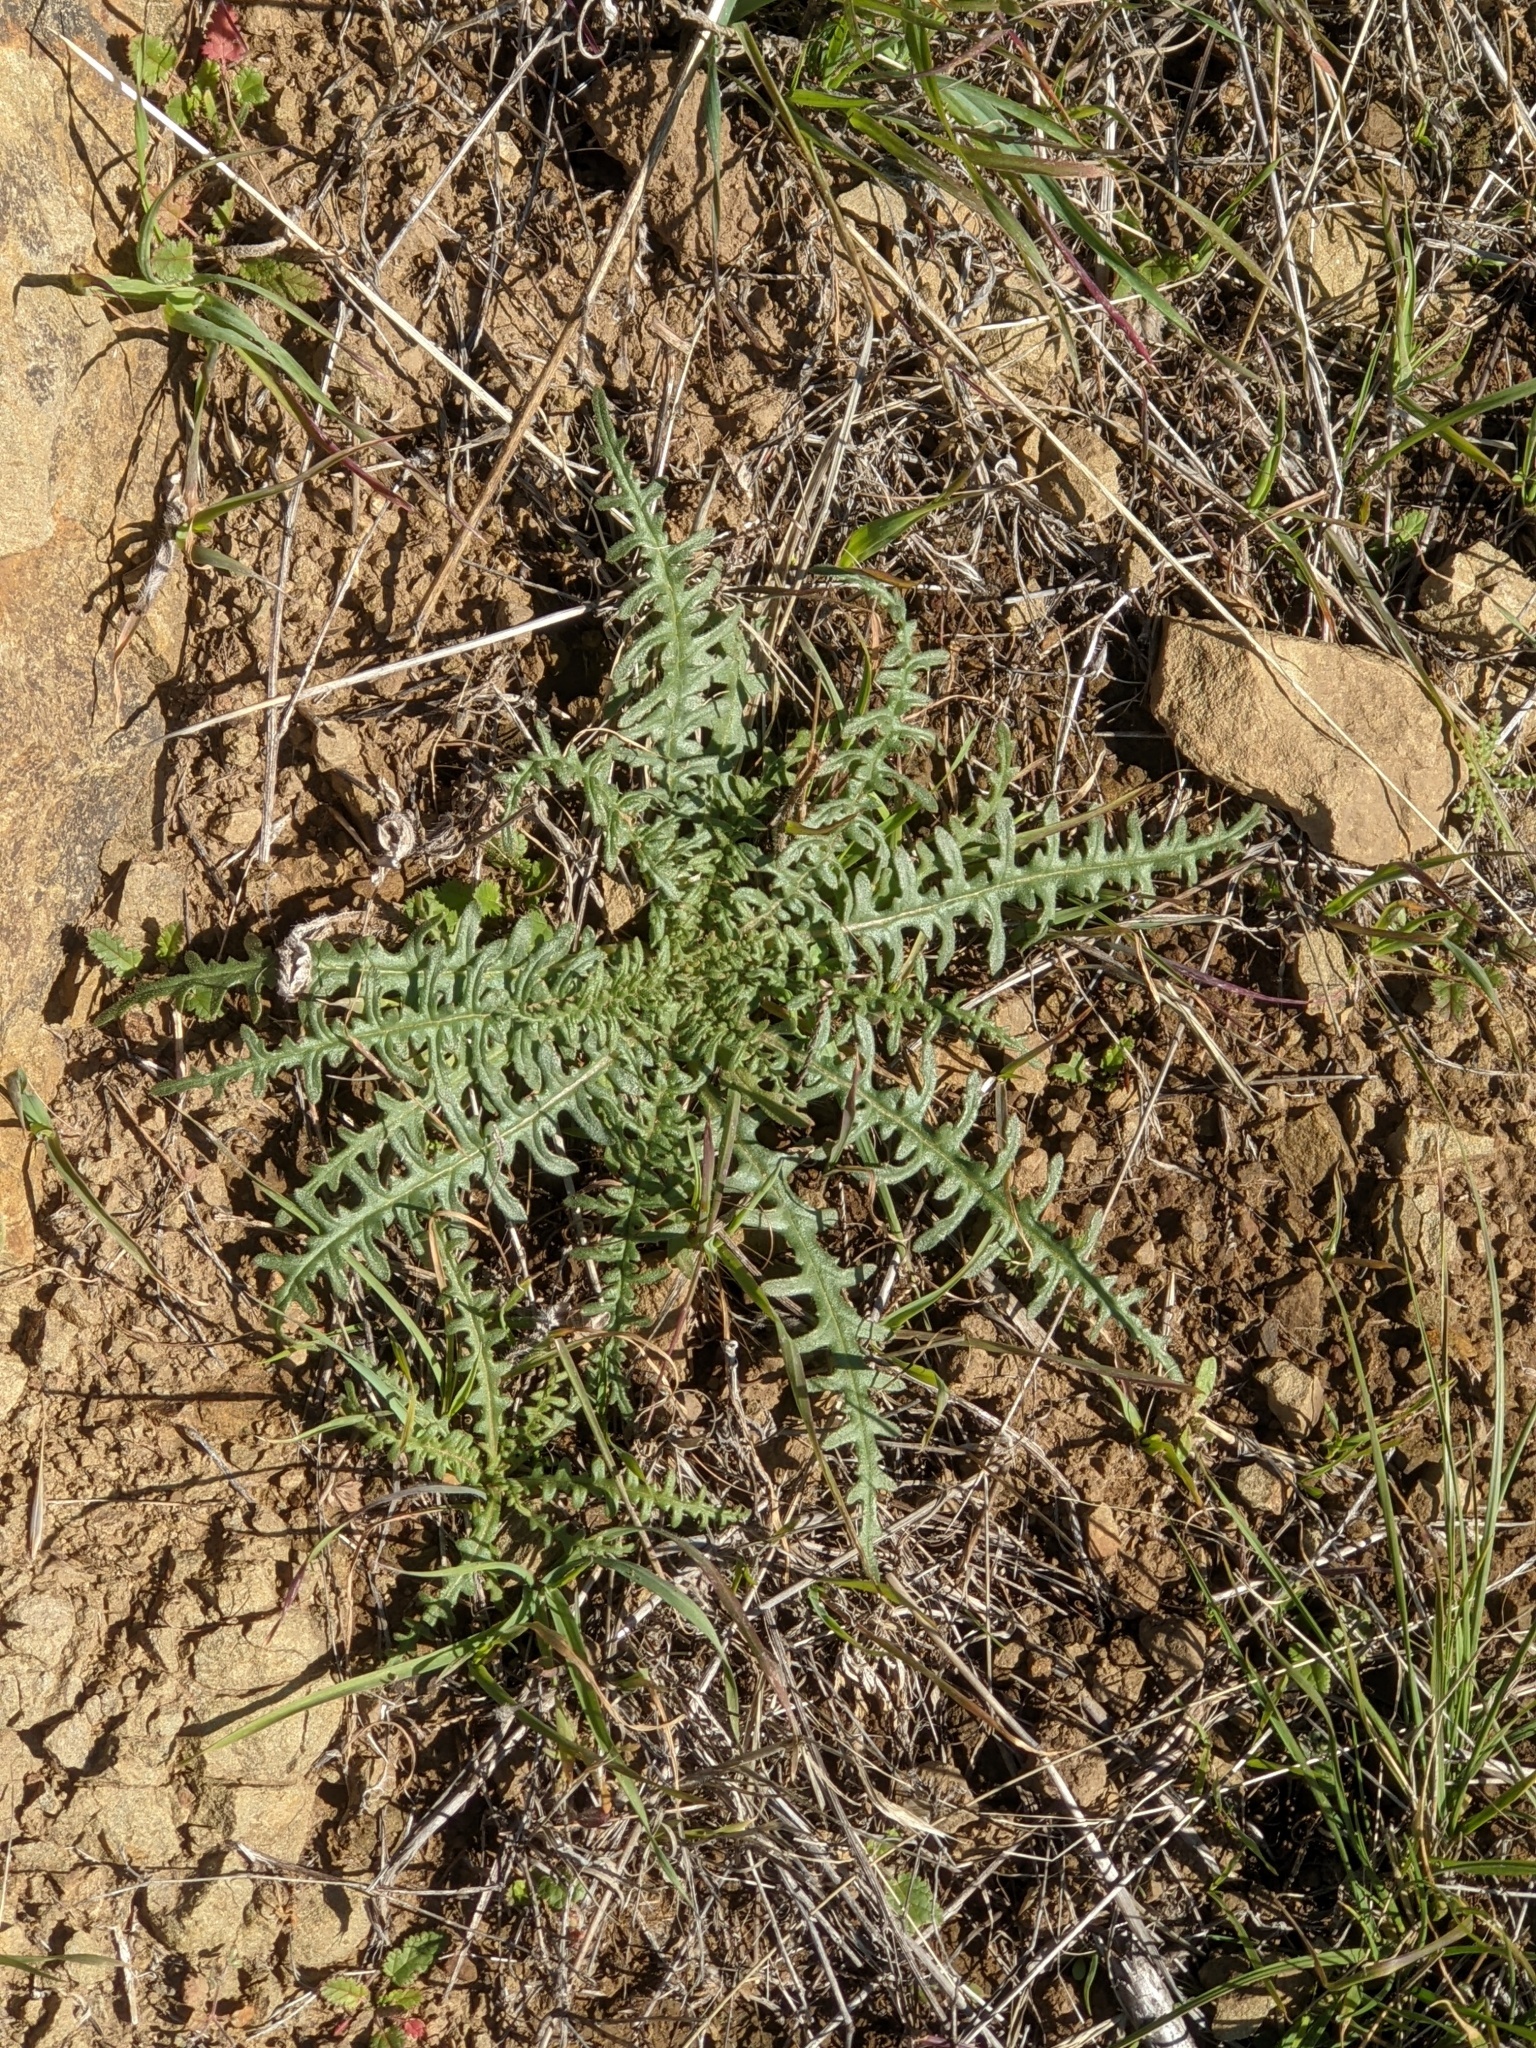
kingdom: Plantae
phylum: Tracheophyta
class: Magnoliopsida
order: Cornales
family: Loasaceae
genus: Mentzelia
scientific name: Mentzelia lindleyi
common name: Golden bartonia
